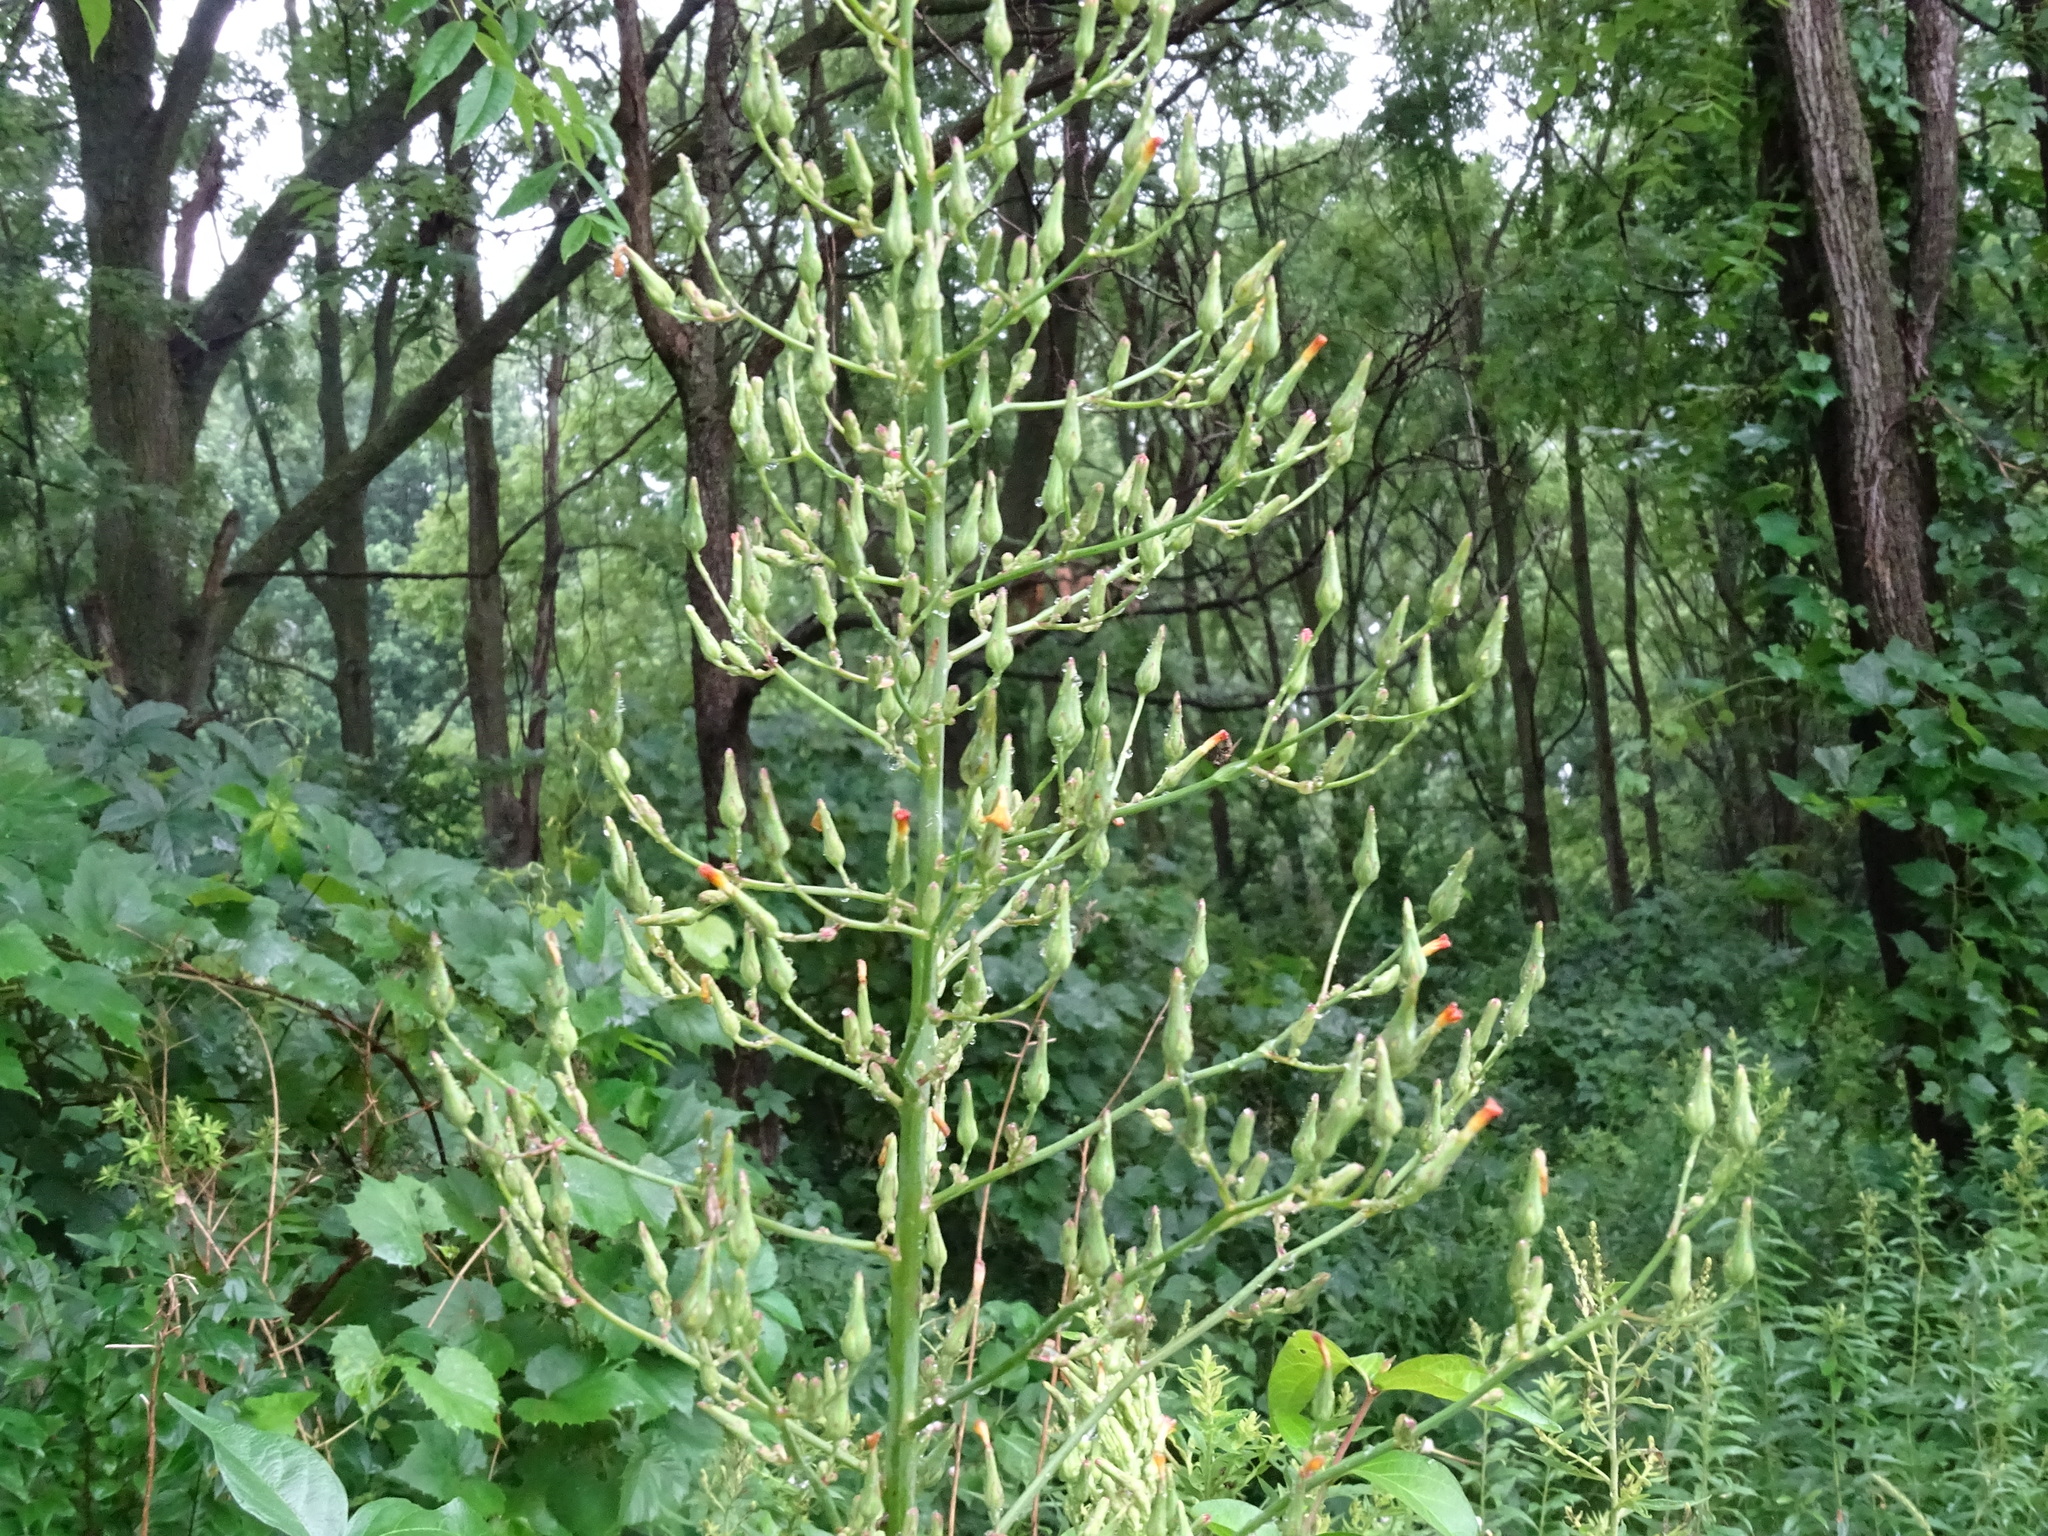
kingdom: Plantae
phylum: Tracheophyta
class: Magnoliopsida
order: Asterales
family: Asteraceae
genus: Lactuca
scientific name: Lactuca canadensis
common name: Canada lettuce
